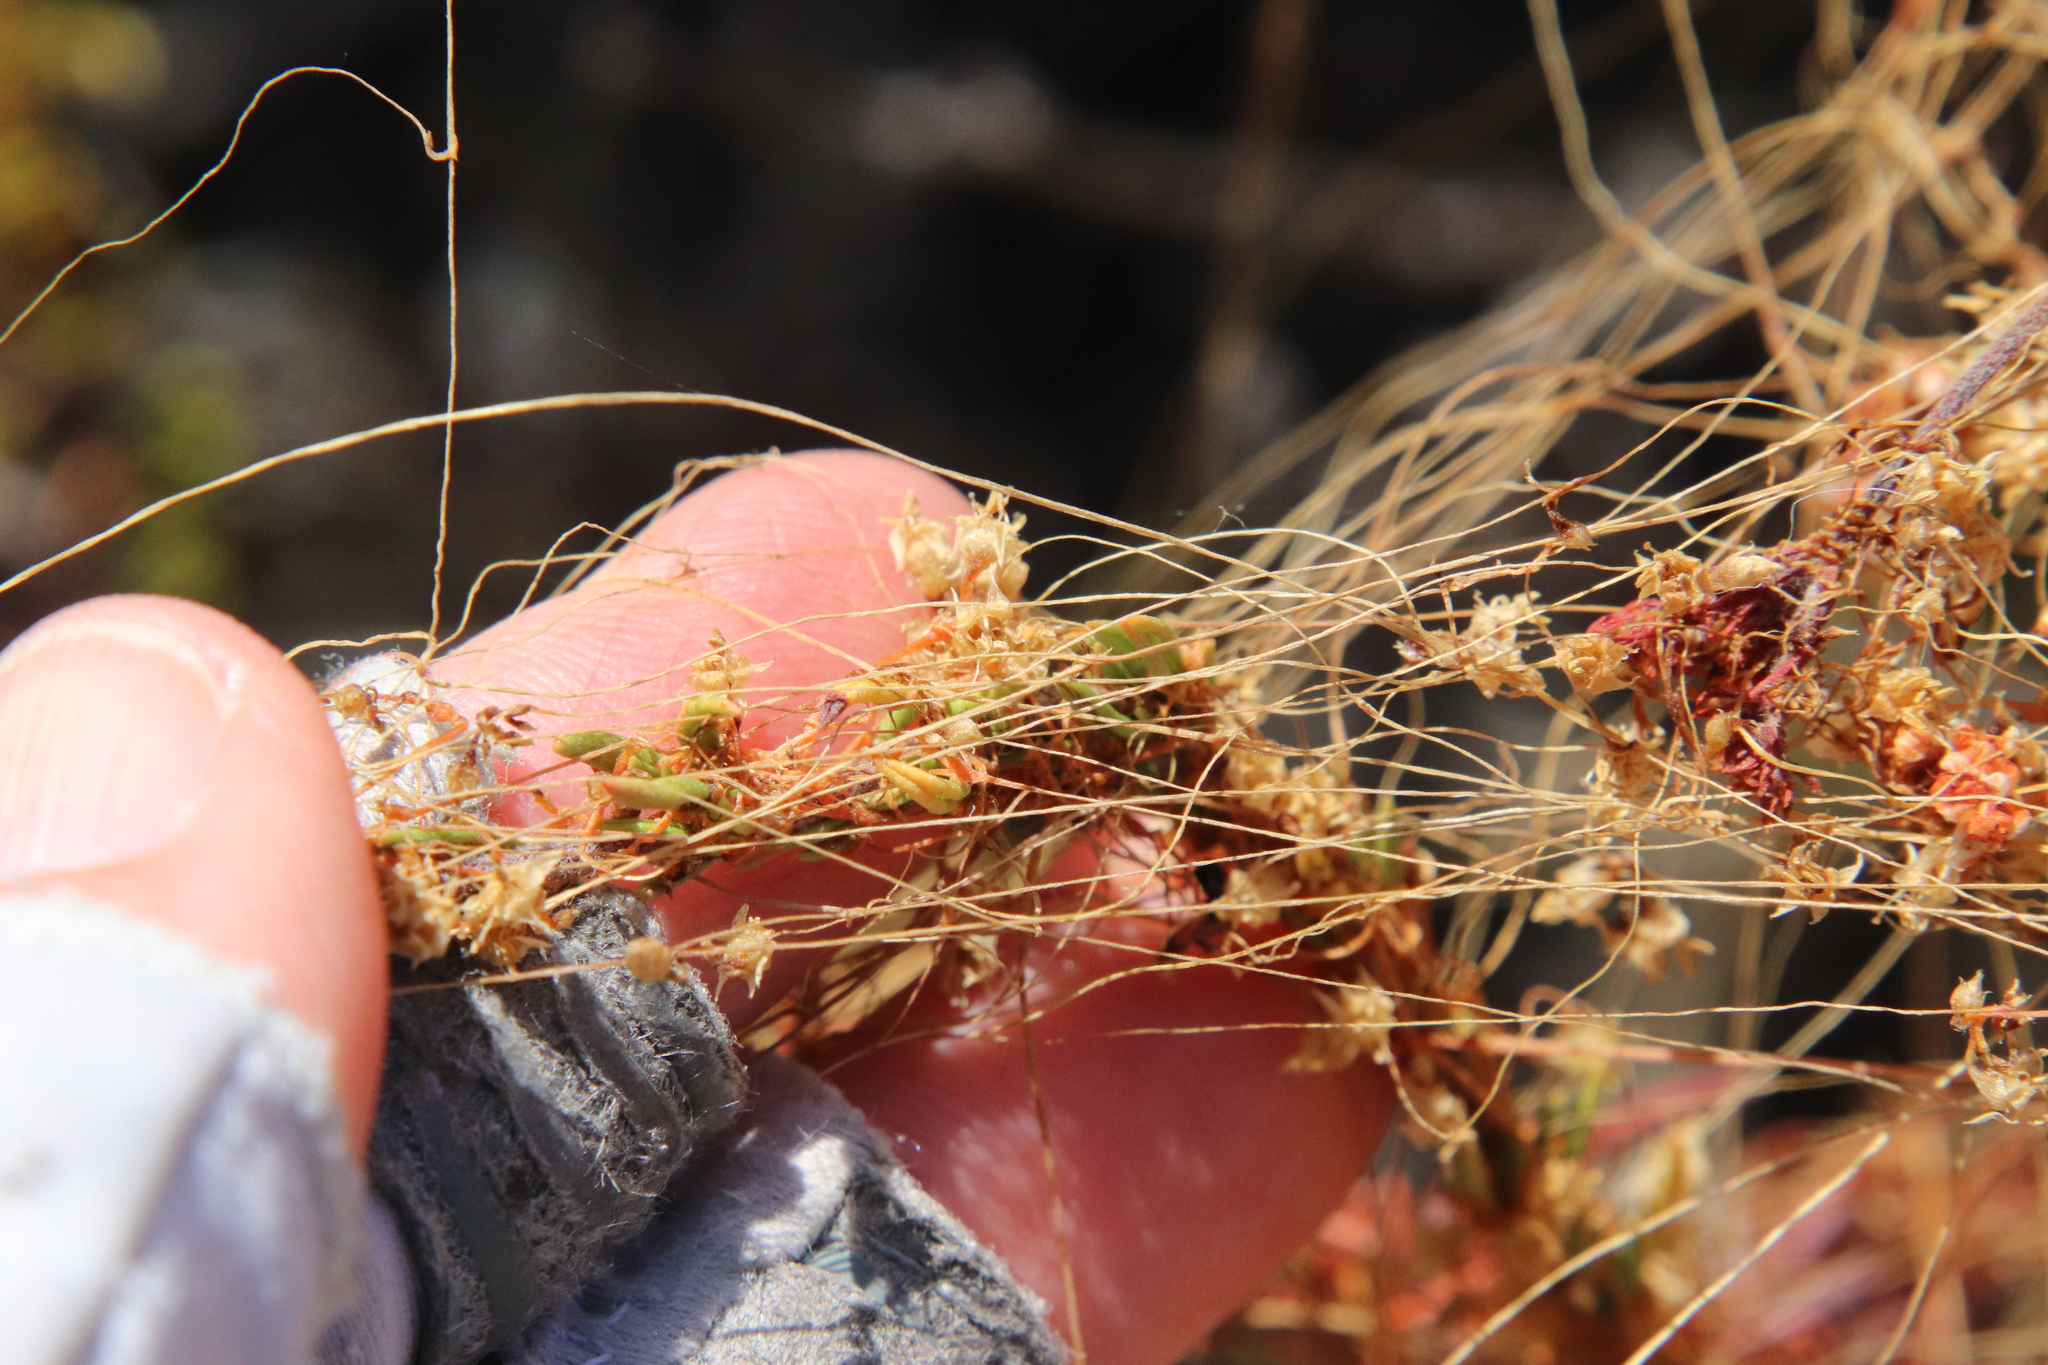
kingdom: Plantae
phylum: Tracheophyta
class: Magnoliopsida
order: Solanales
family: Convolvulaceae
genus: Cuscuta
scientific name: Cuscuta californica
